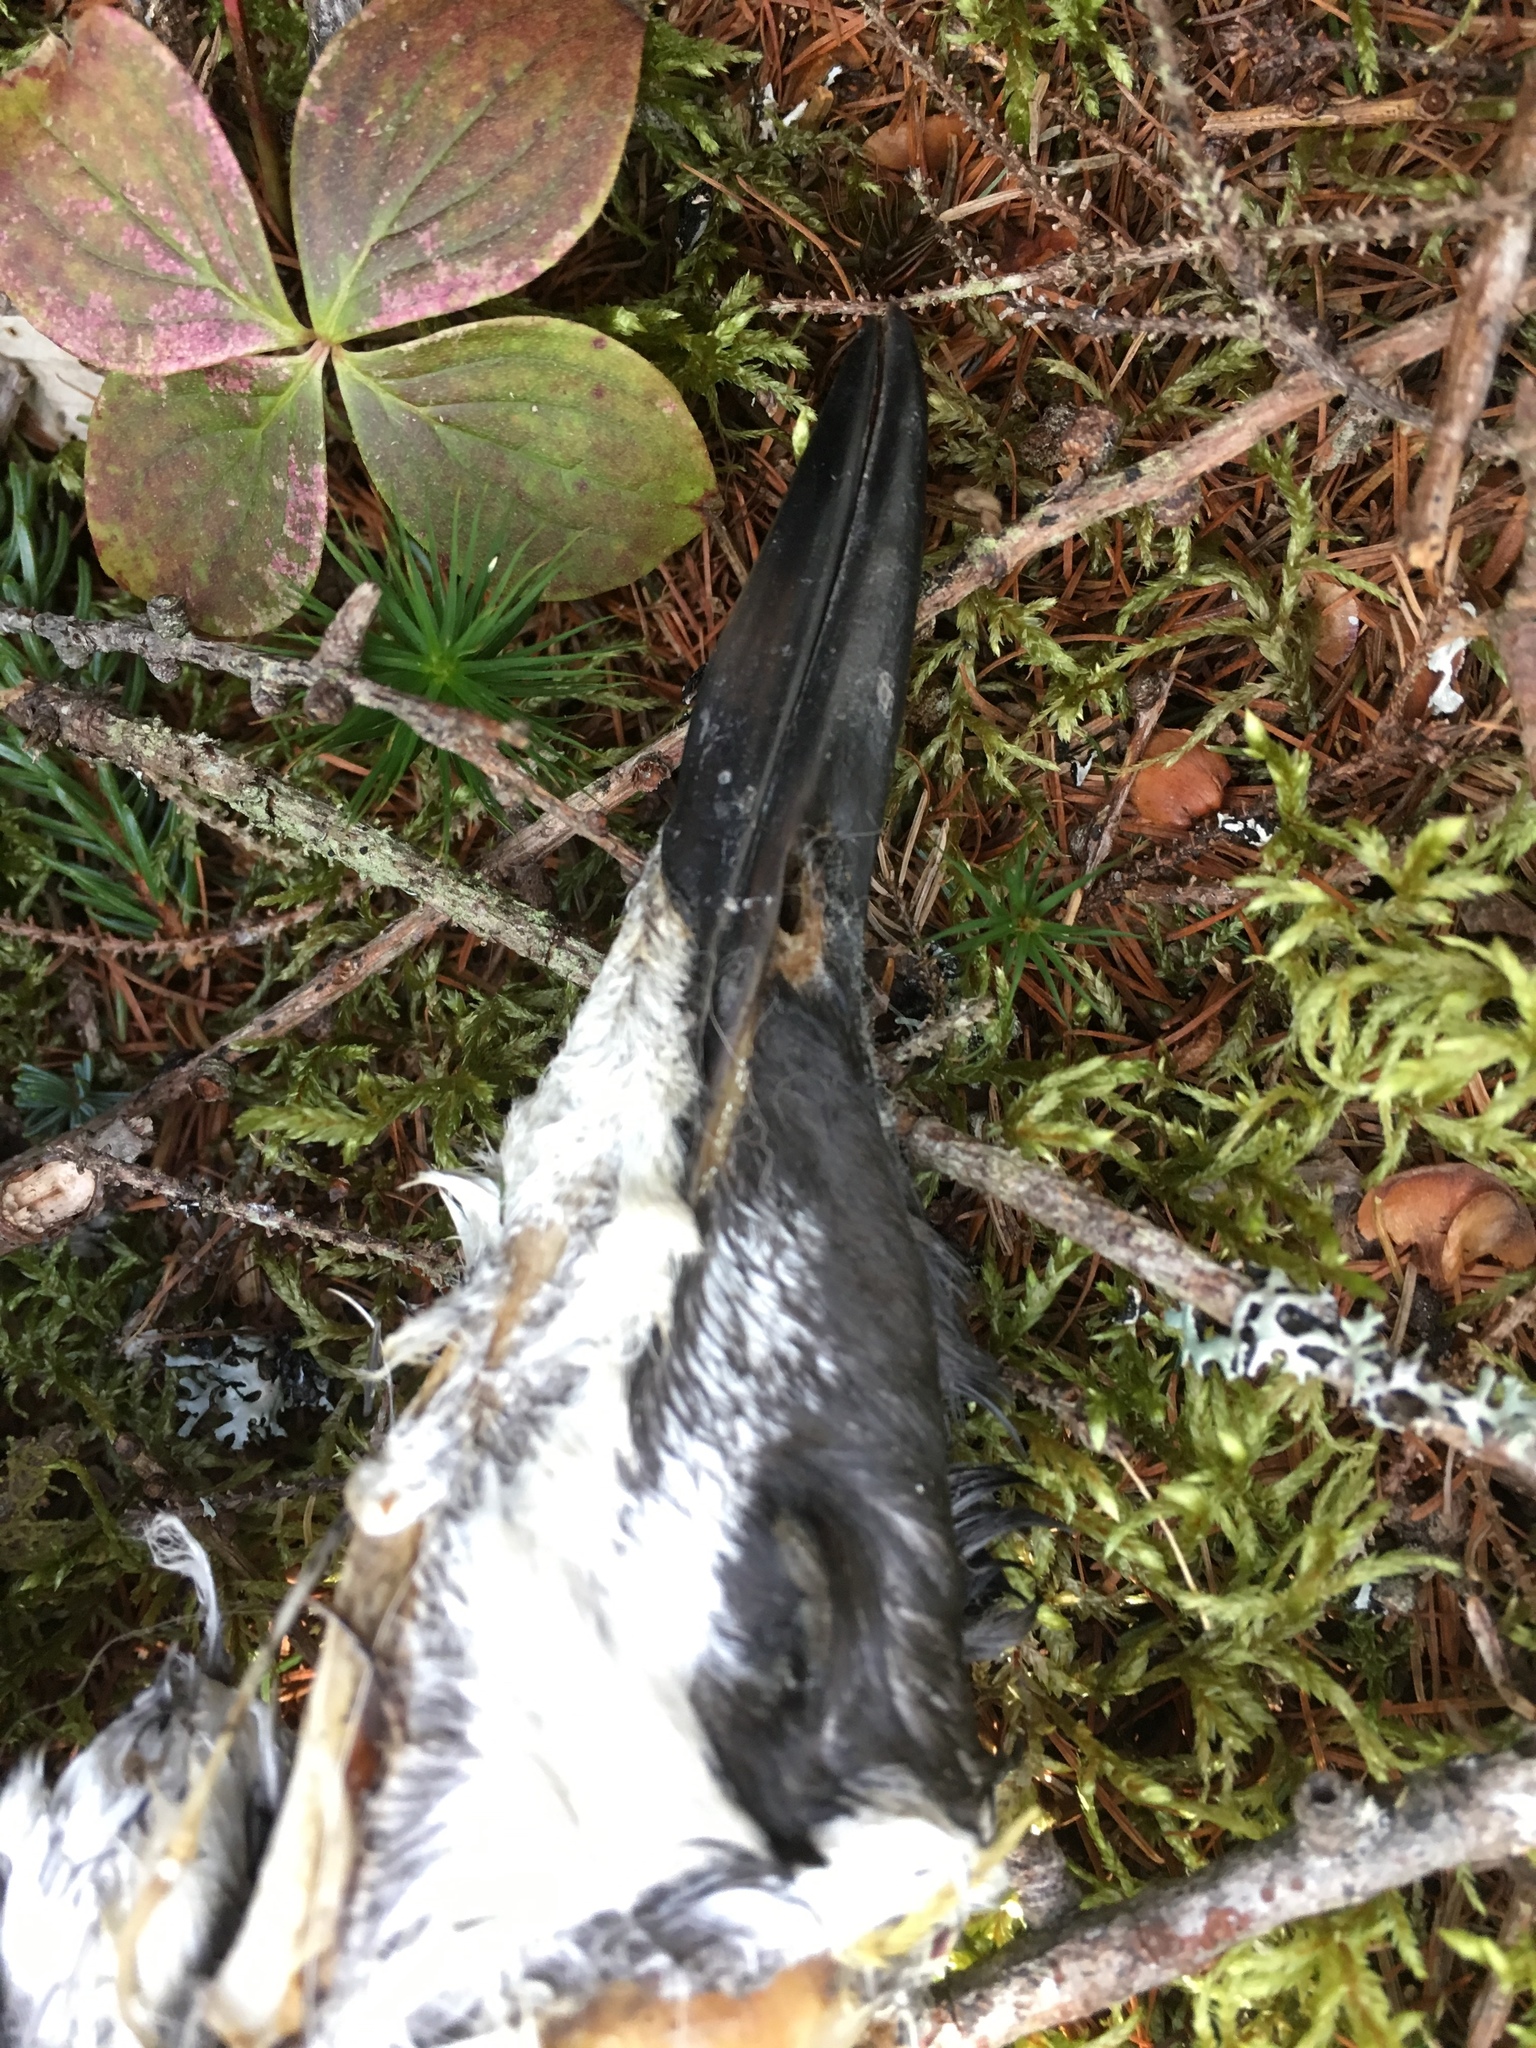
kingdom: Animalia
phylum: Chordata
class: Aves
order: Charadriiformes
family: Alcidae
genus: Uria
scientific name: Uria aalge
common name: Common murre
